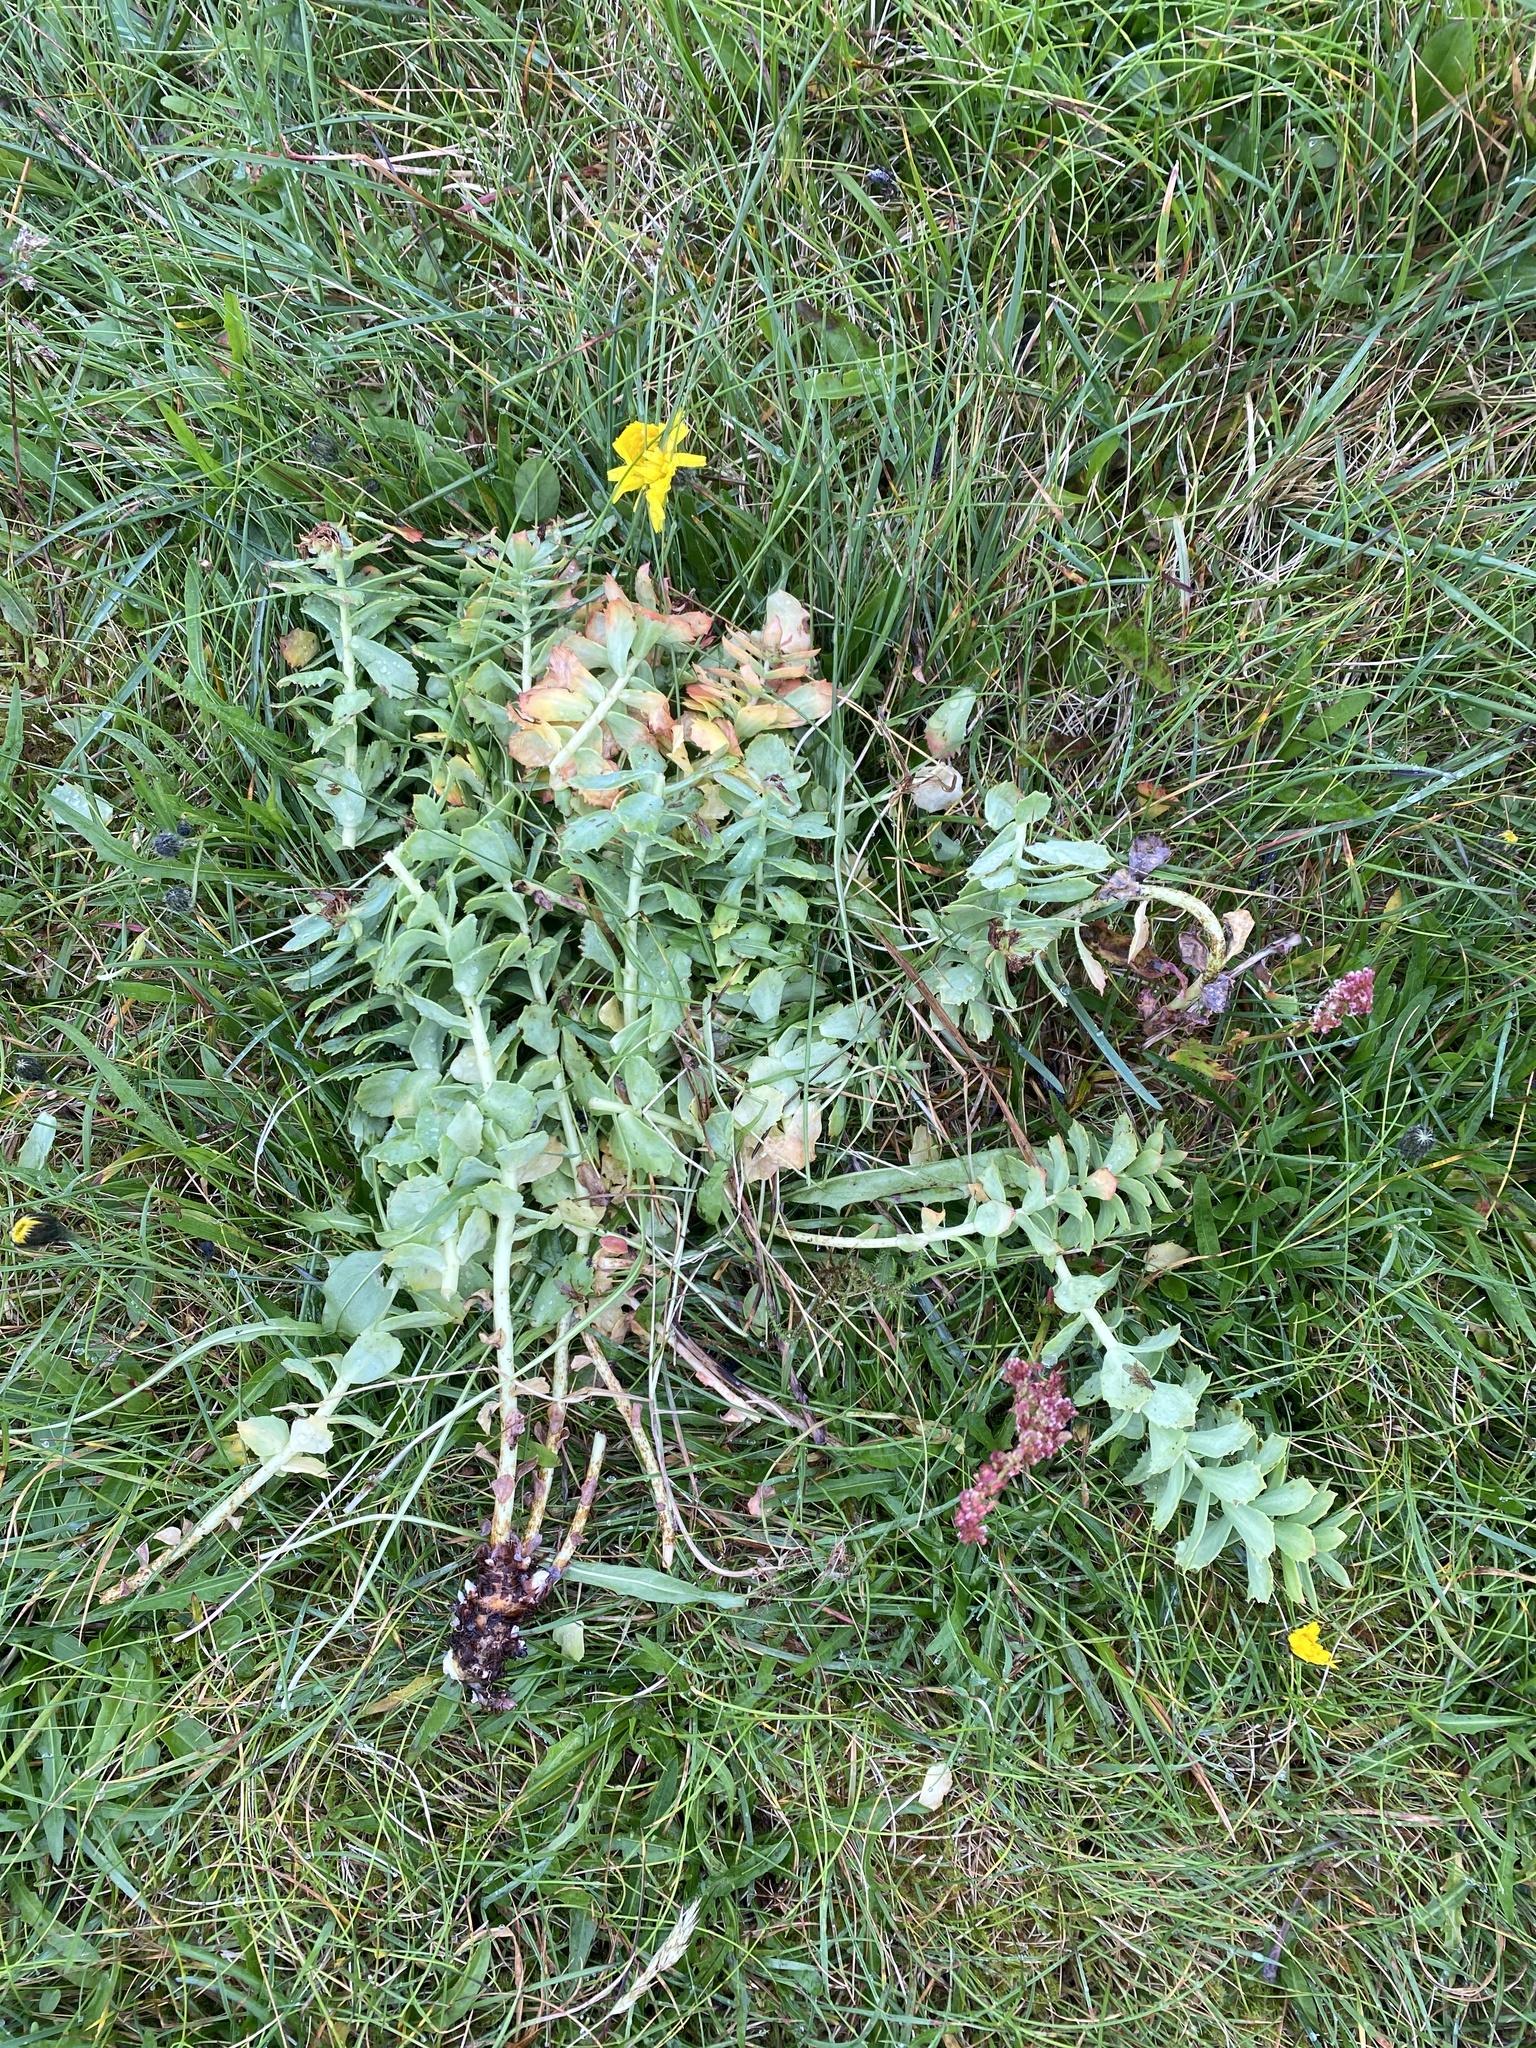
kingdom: Plantae
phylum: Tracheophyta
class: Magnoliopsida
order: Saxifragales
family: Crassulaceae
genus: Rhodiola
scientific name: Rhodiola rosea
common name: Roseroot
